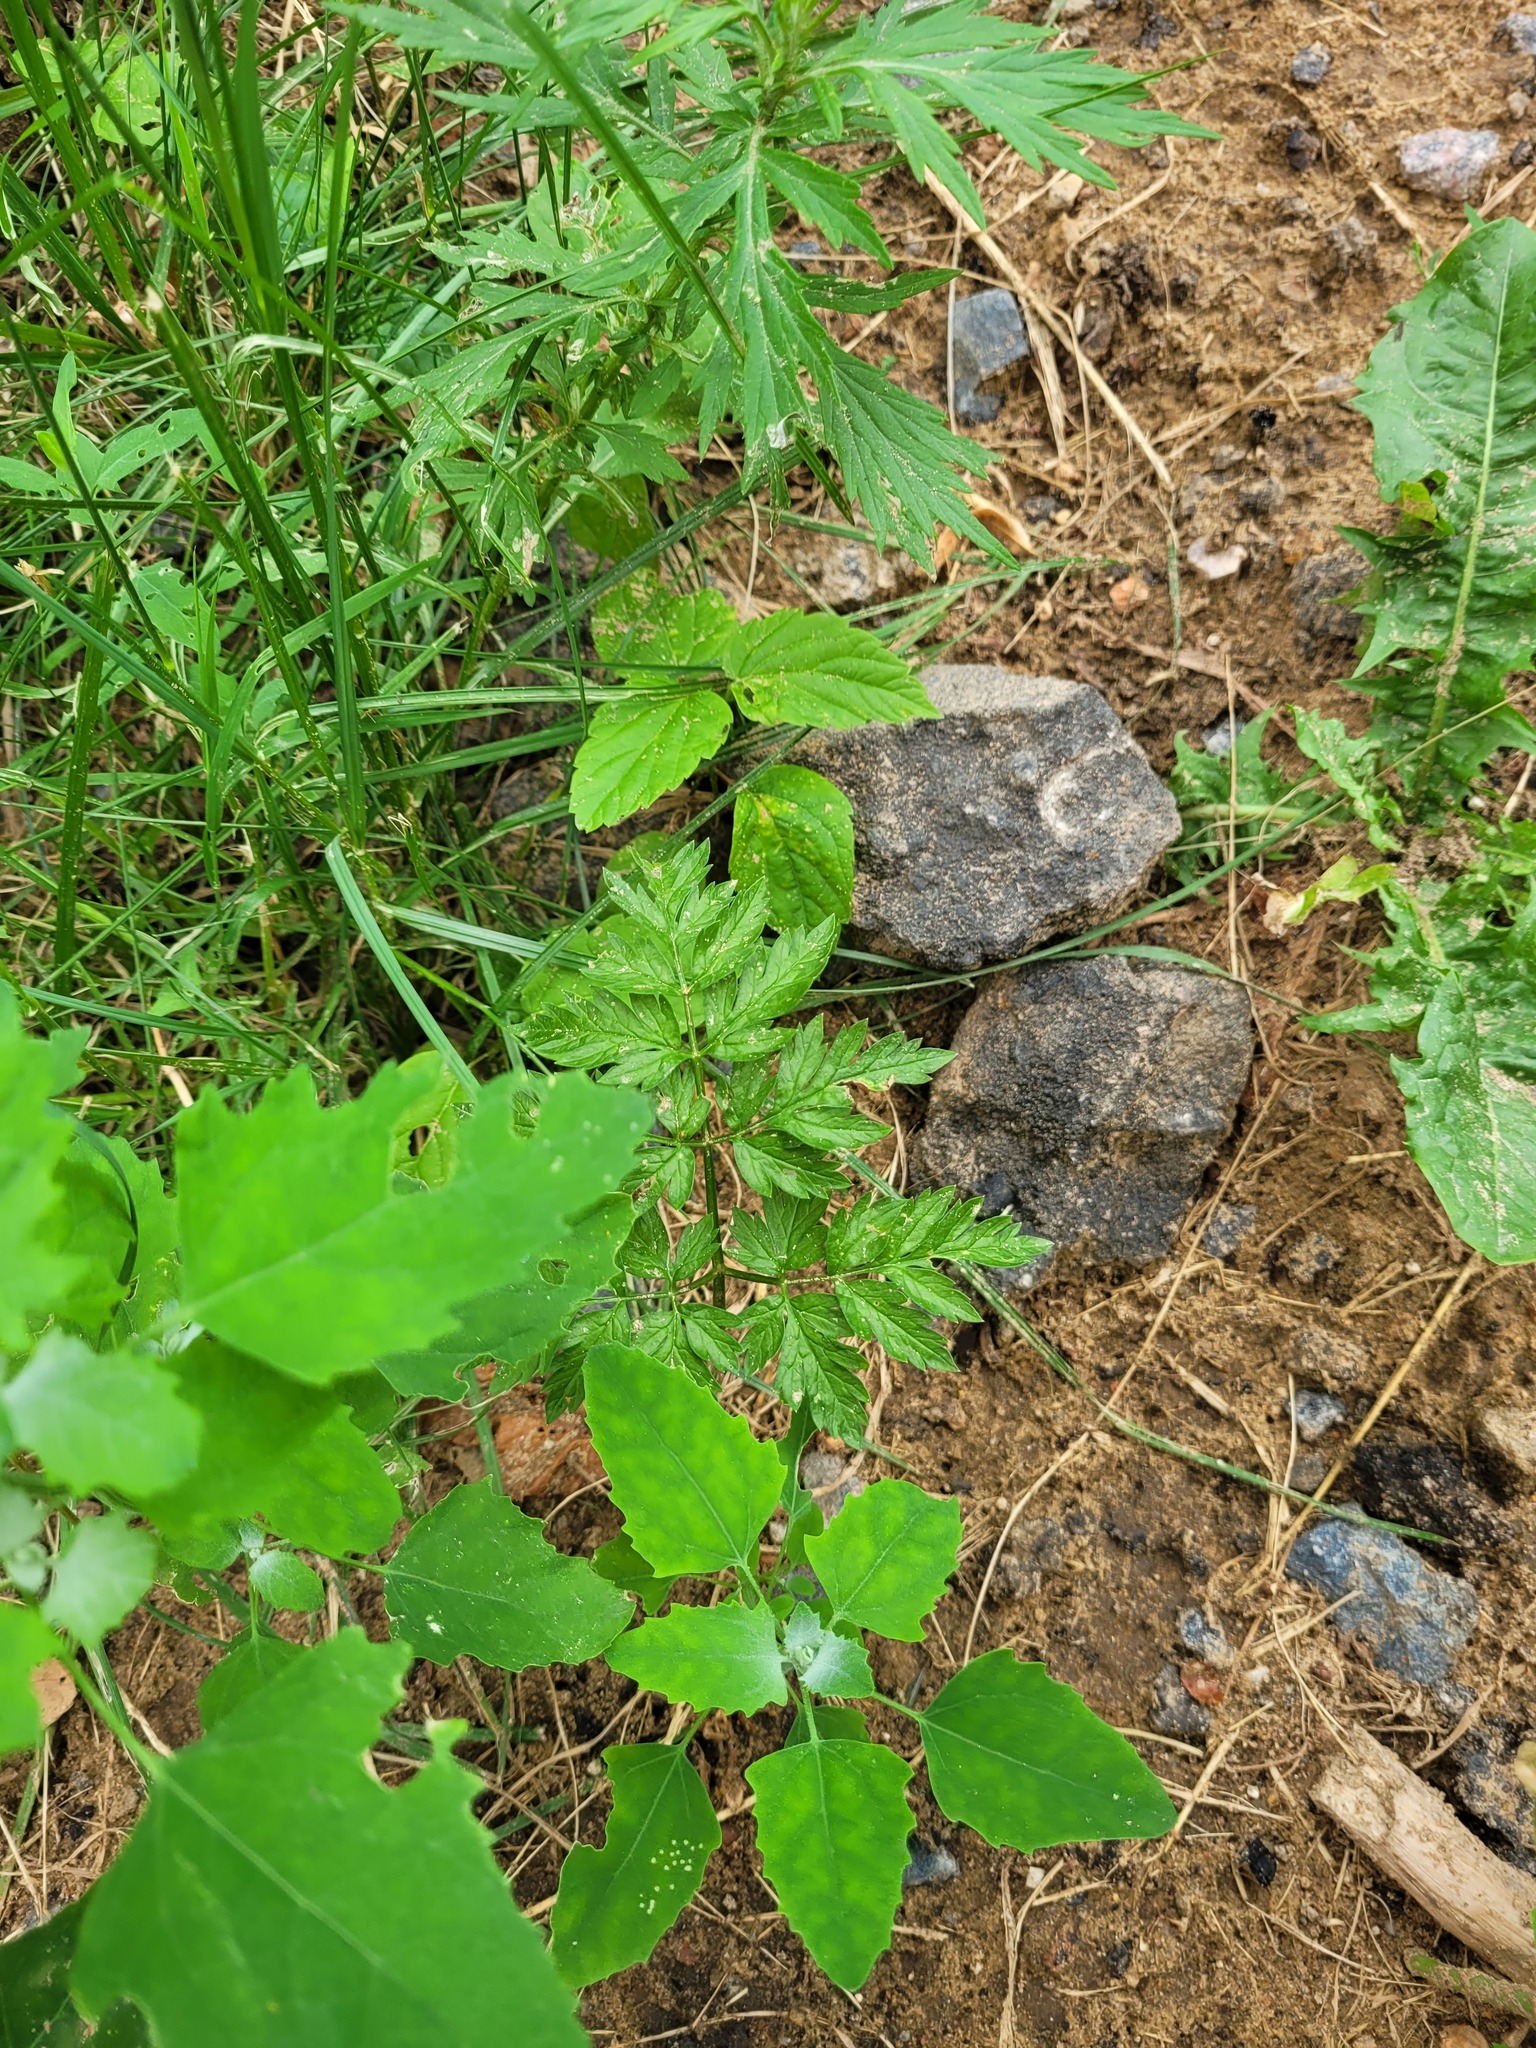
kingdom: Plantae
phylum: Tracheophyta
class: Magnoliopsida
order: Apiales
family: Apiaceae
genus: Anthriscus
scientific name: Anthriscus sylvestris
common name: Cow parsley
